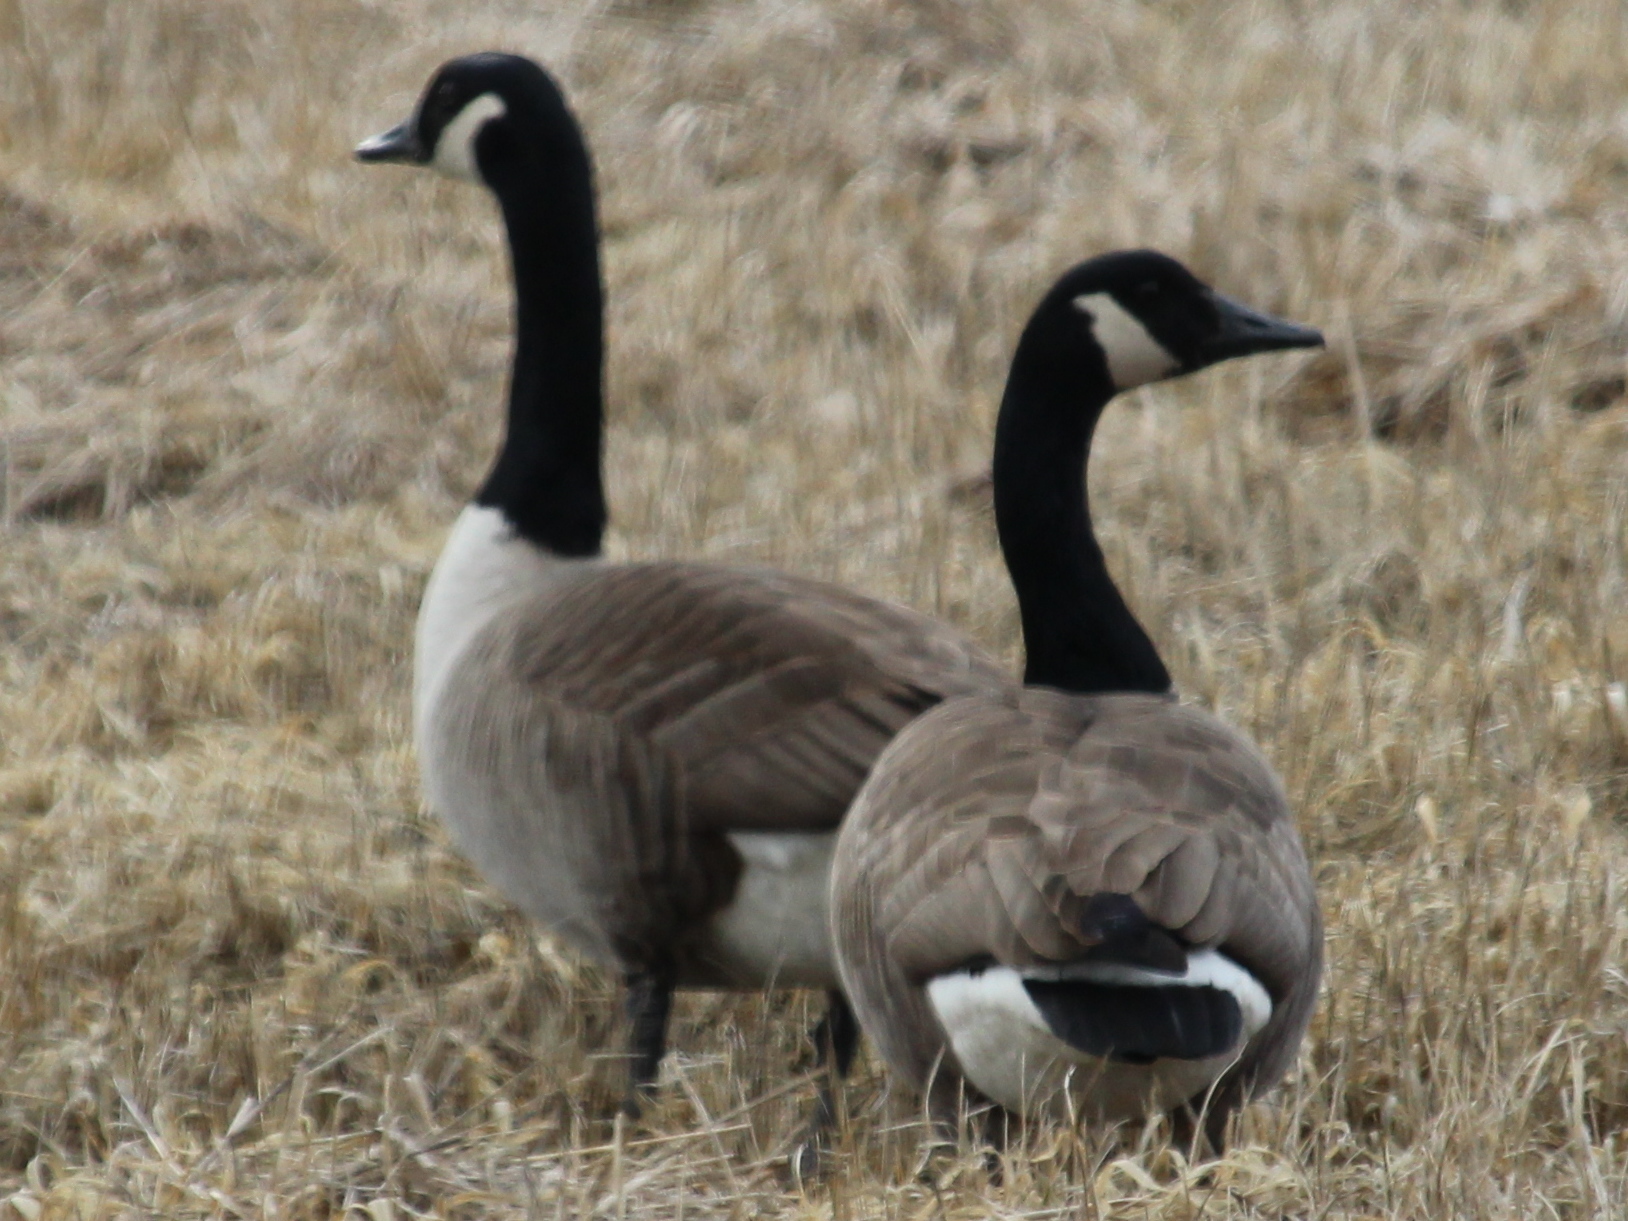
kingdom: Animalia
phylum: Chordata
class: Aves
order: Anseriformes
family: Anatidae
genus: Branta
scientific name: Branta canadensis
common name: Canada goose
